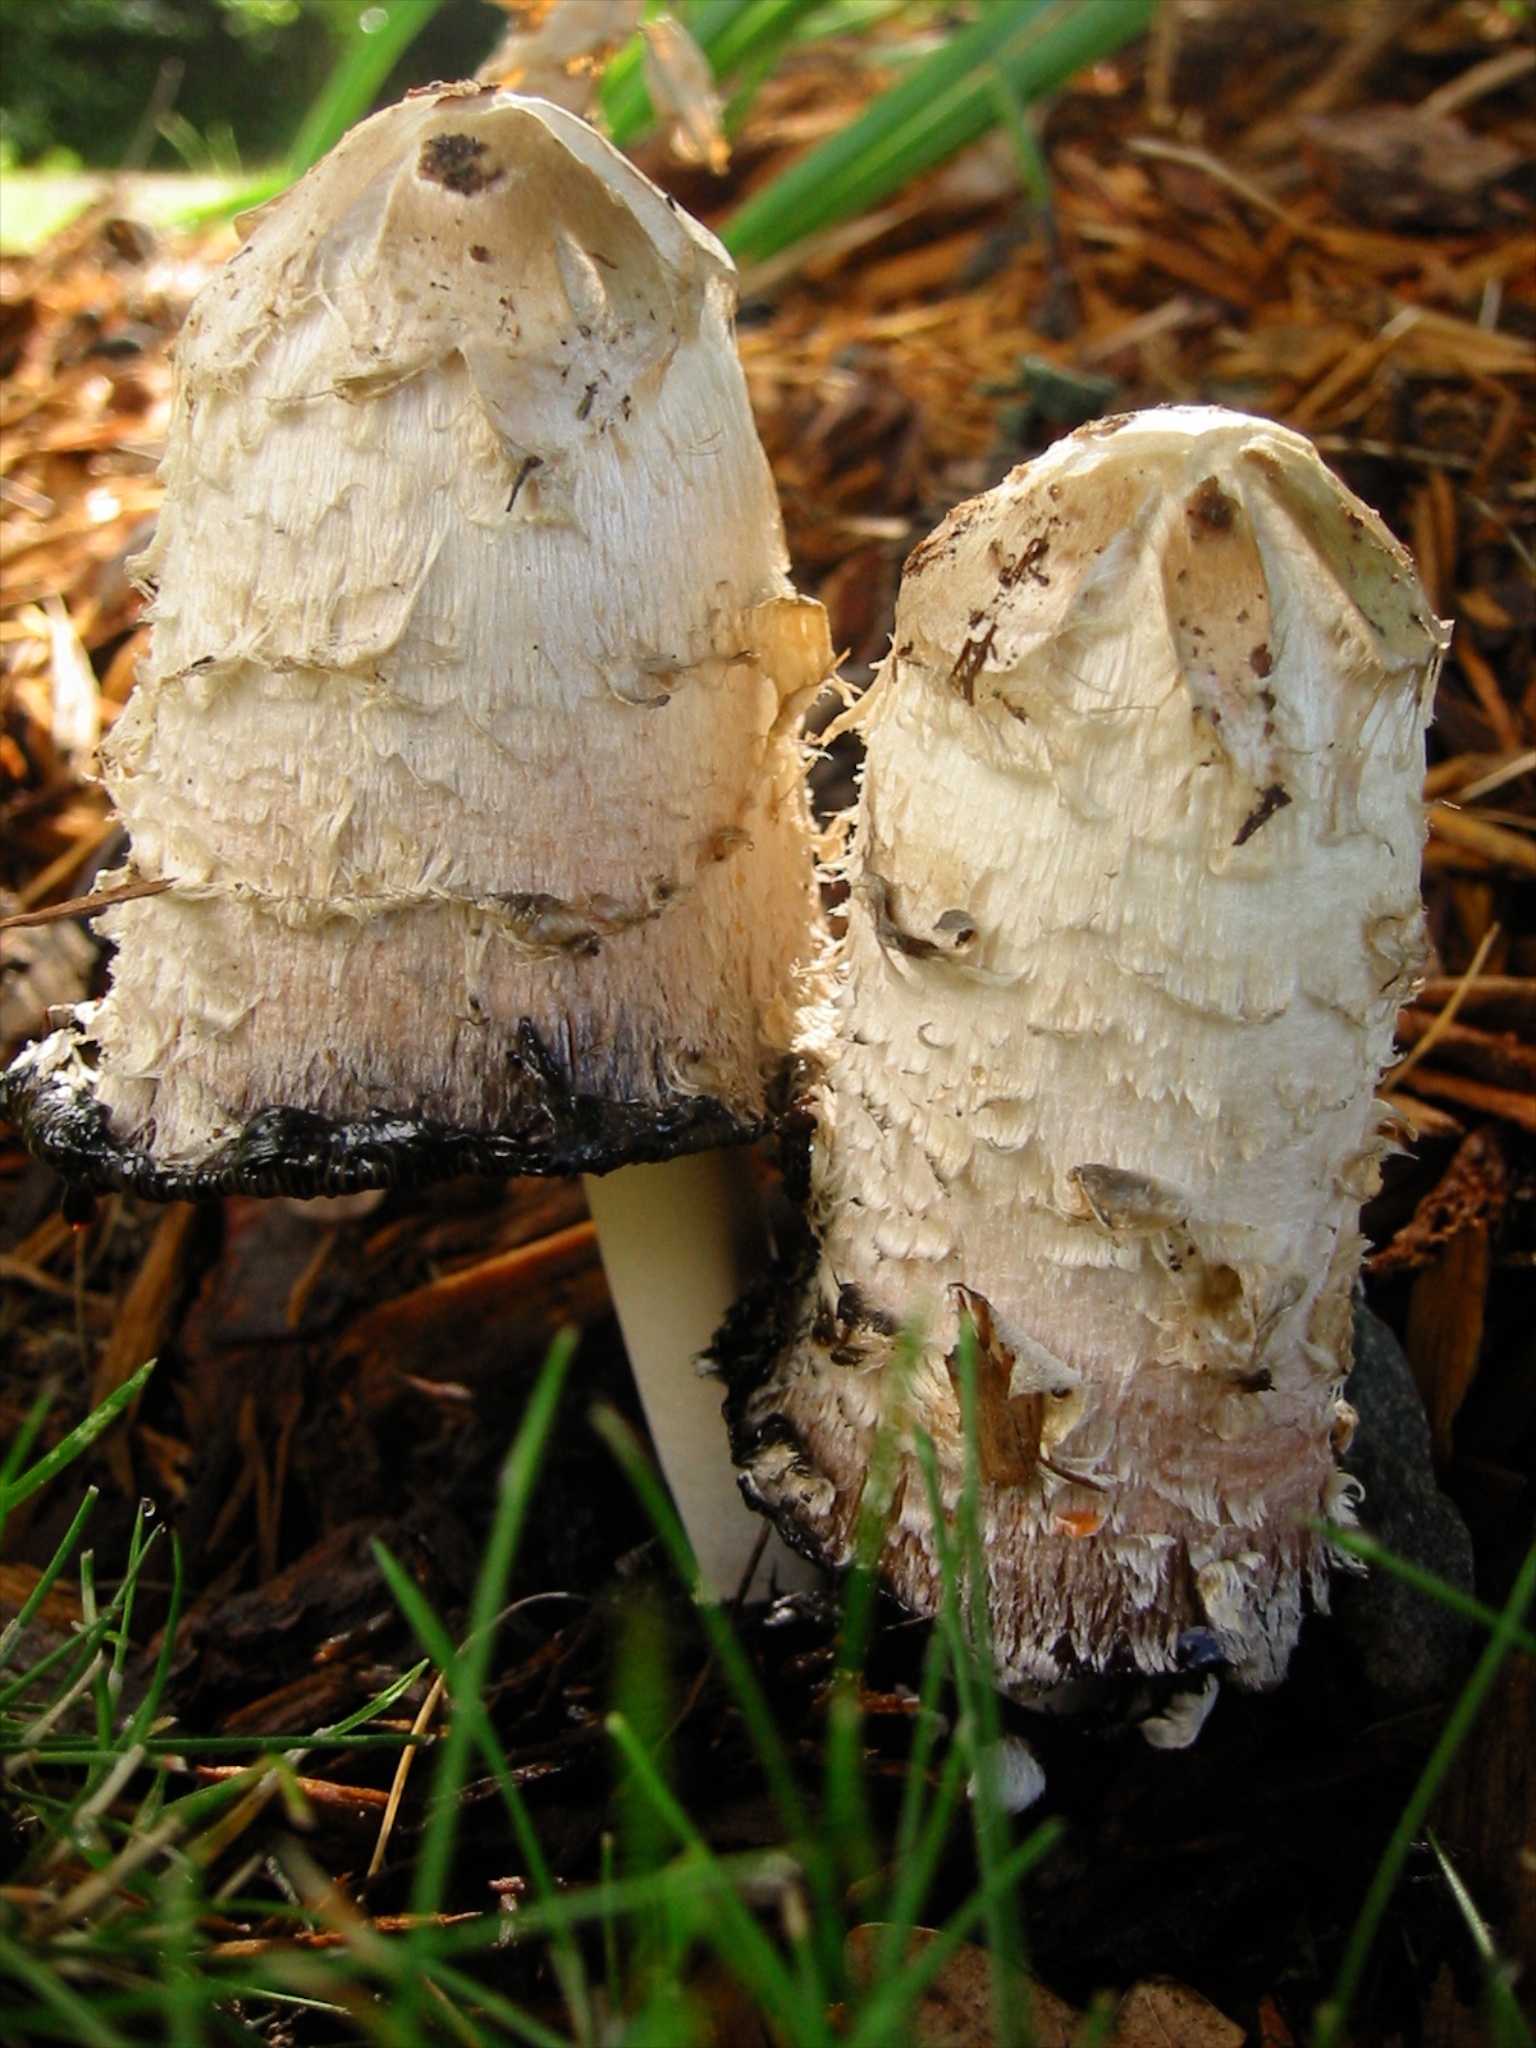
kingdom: Fungi
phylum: Basidiomycota
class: Agaricomycetes
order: Agaricales
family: Agaricaceae
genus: Coprinus
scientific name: Coprinus comatus
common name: Lawyer's wig
